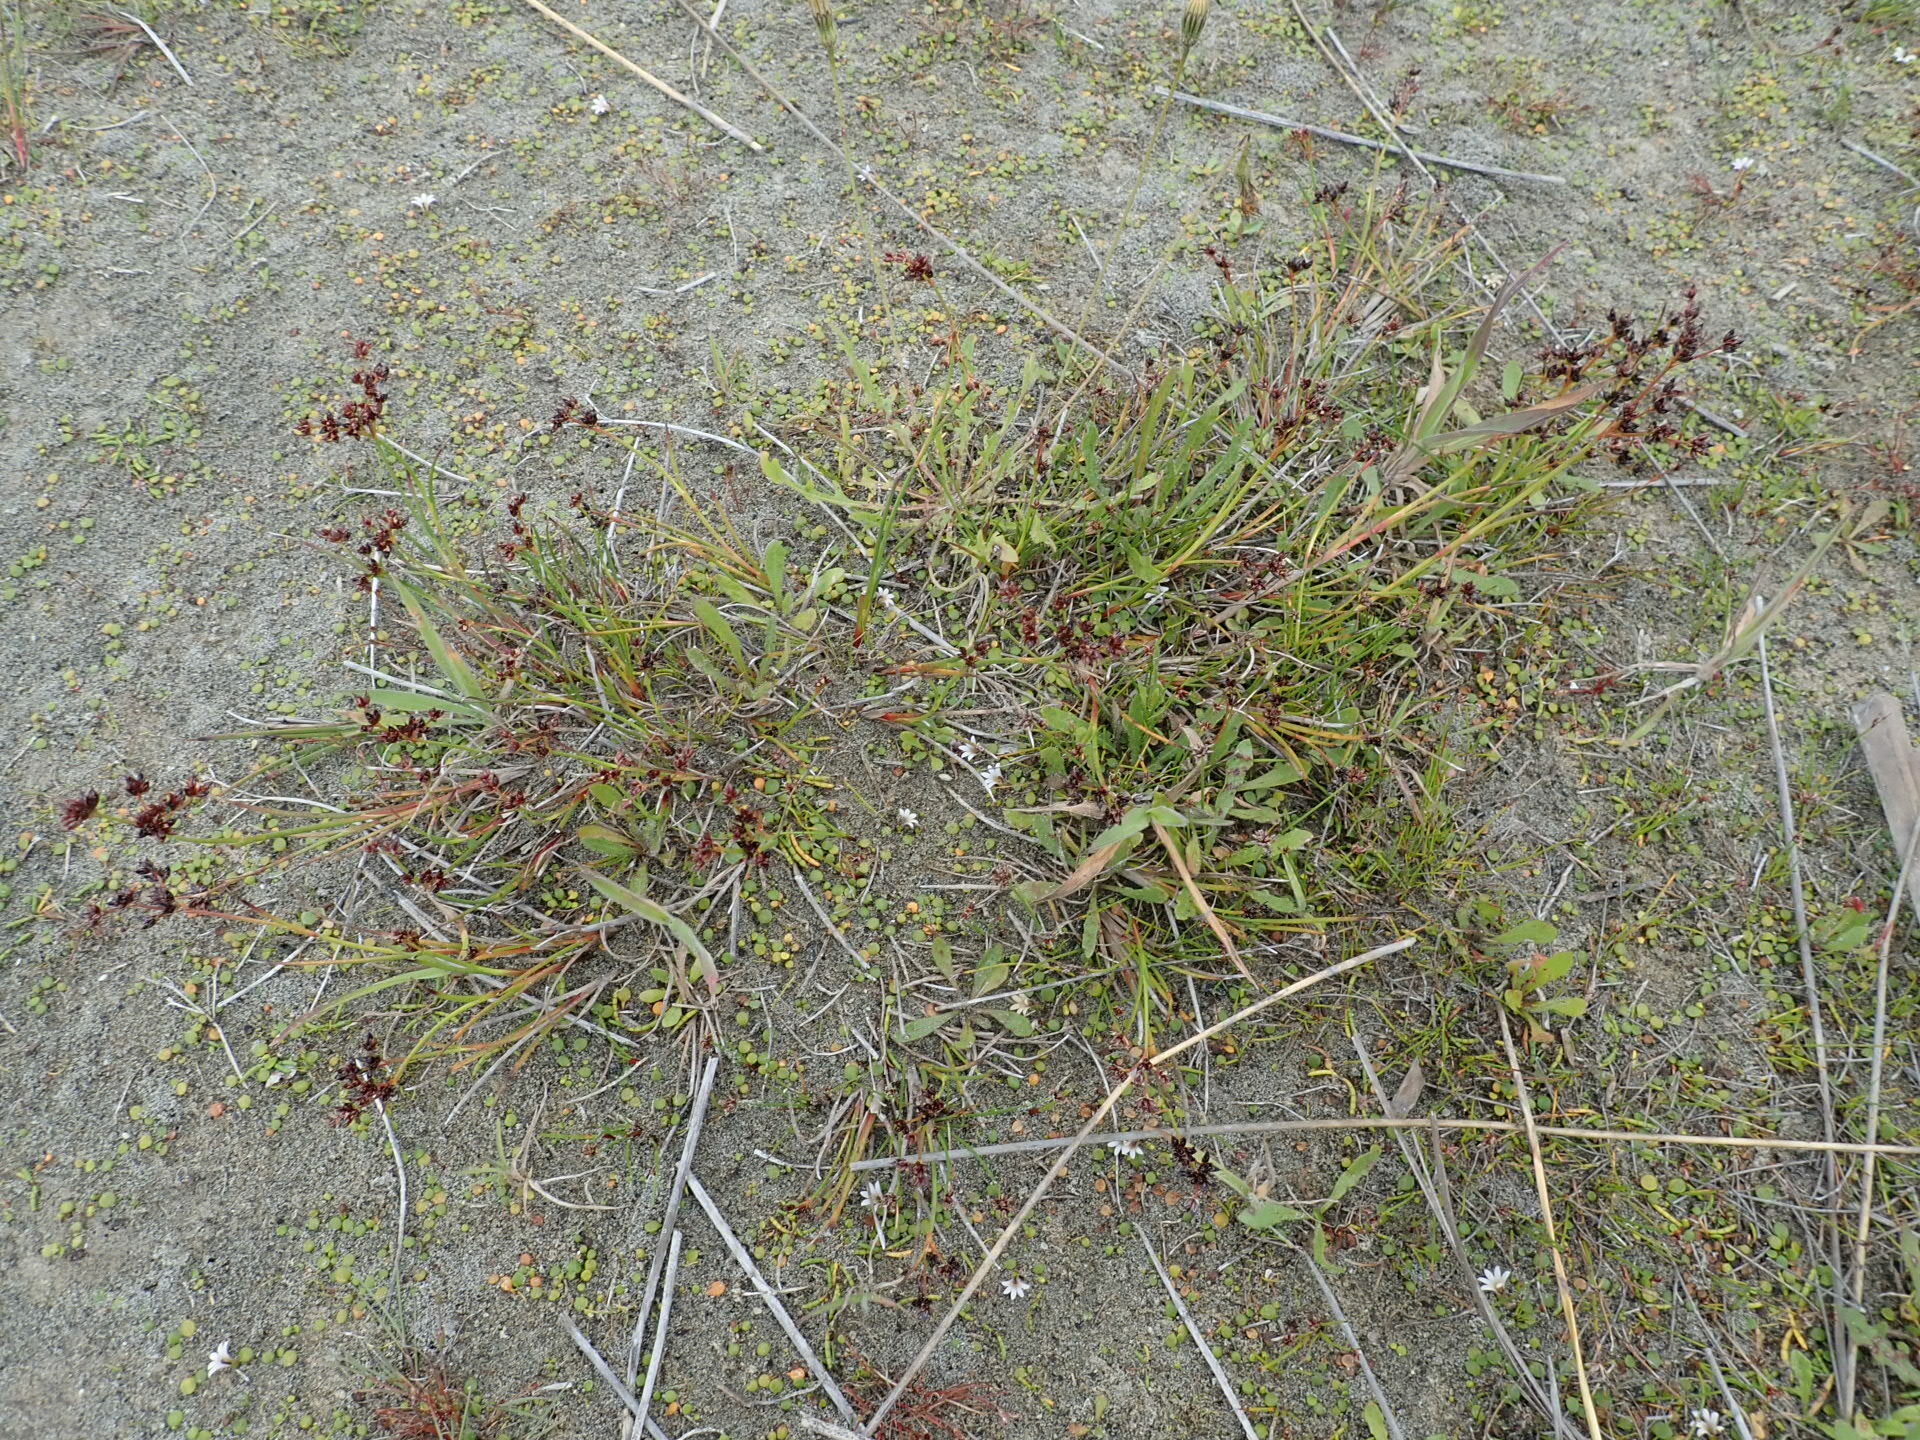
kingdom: Plantae
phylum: Tracheophyta
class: Magnoliopsida
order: Asterales
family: Goodeniaceae
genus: Goodenia
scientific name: Goodenia heenanii
